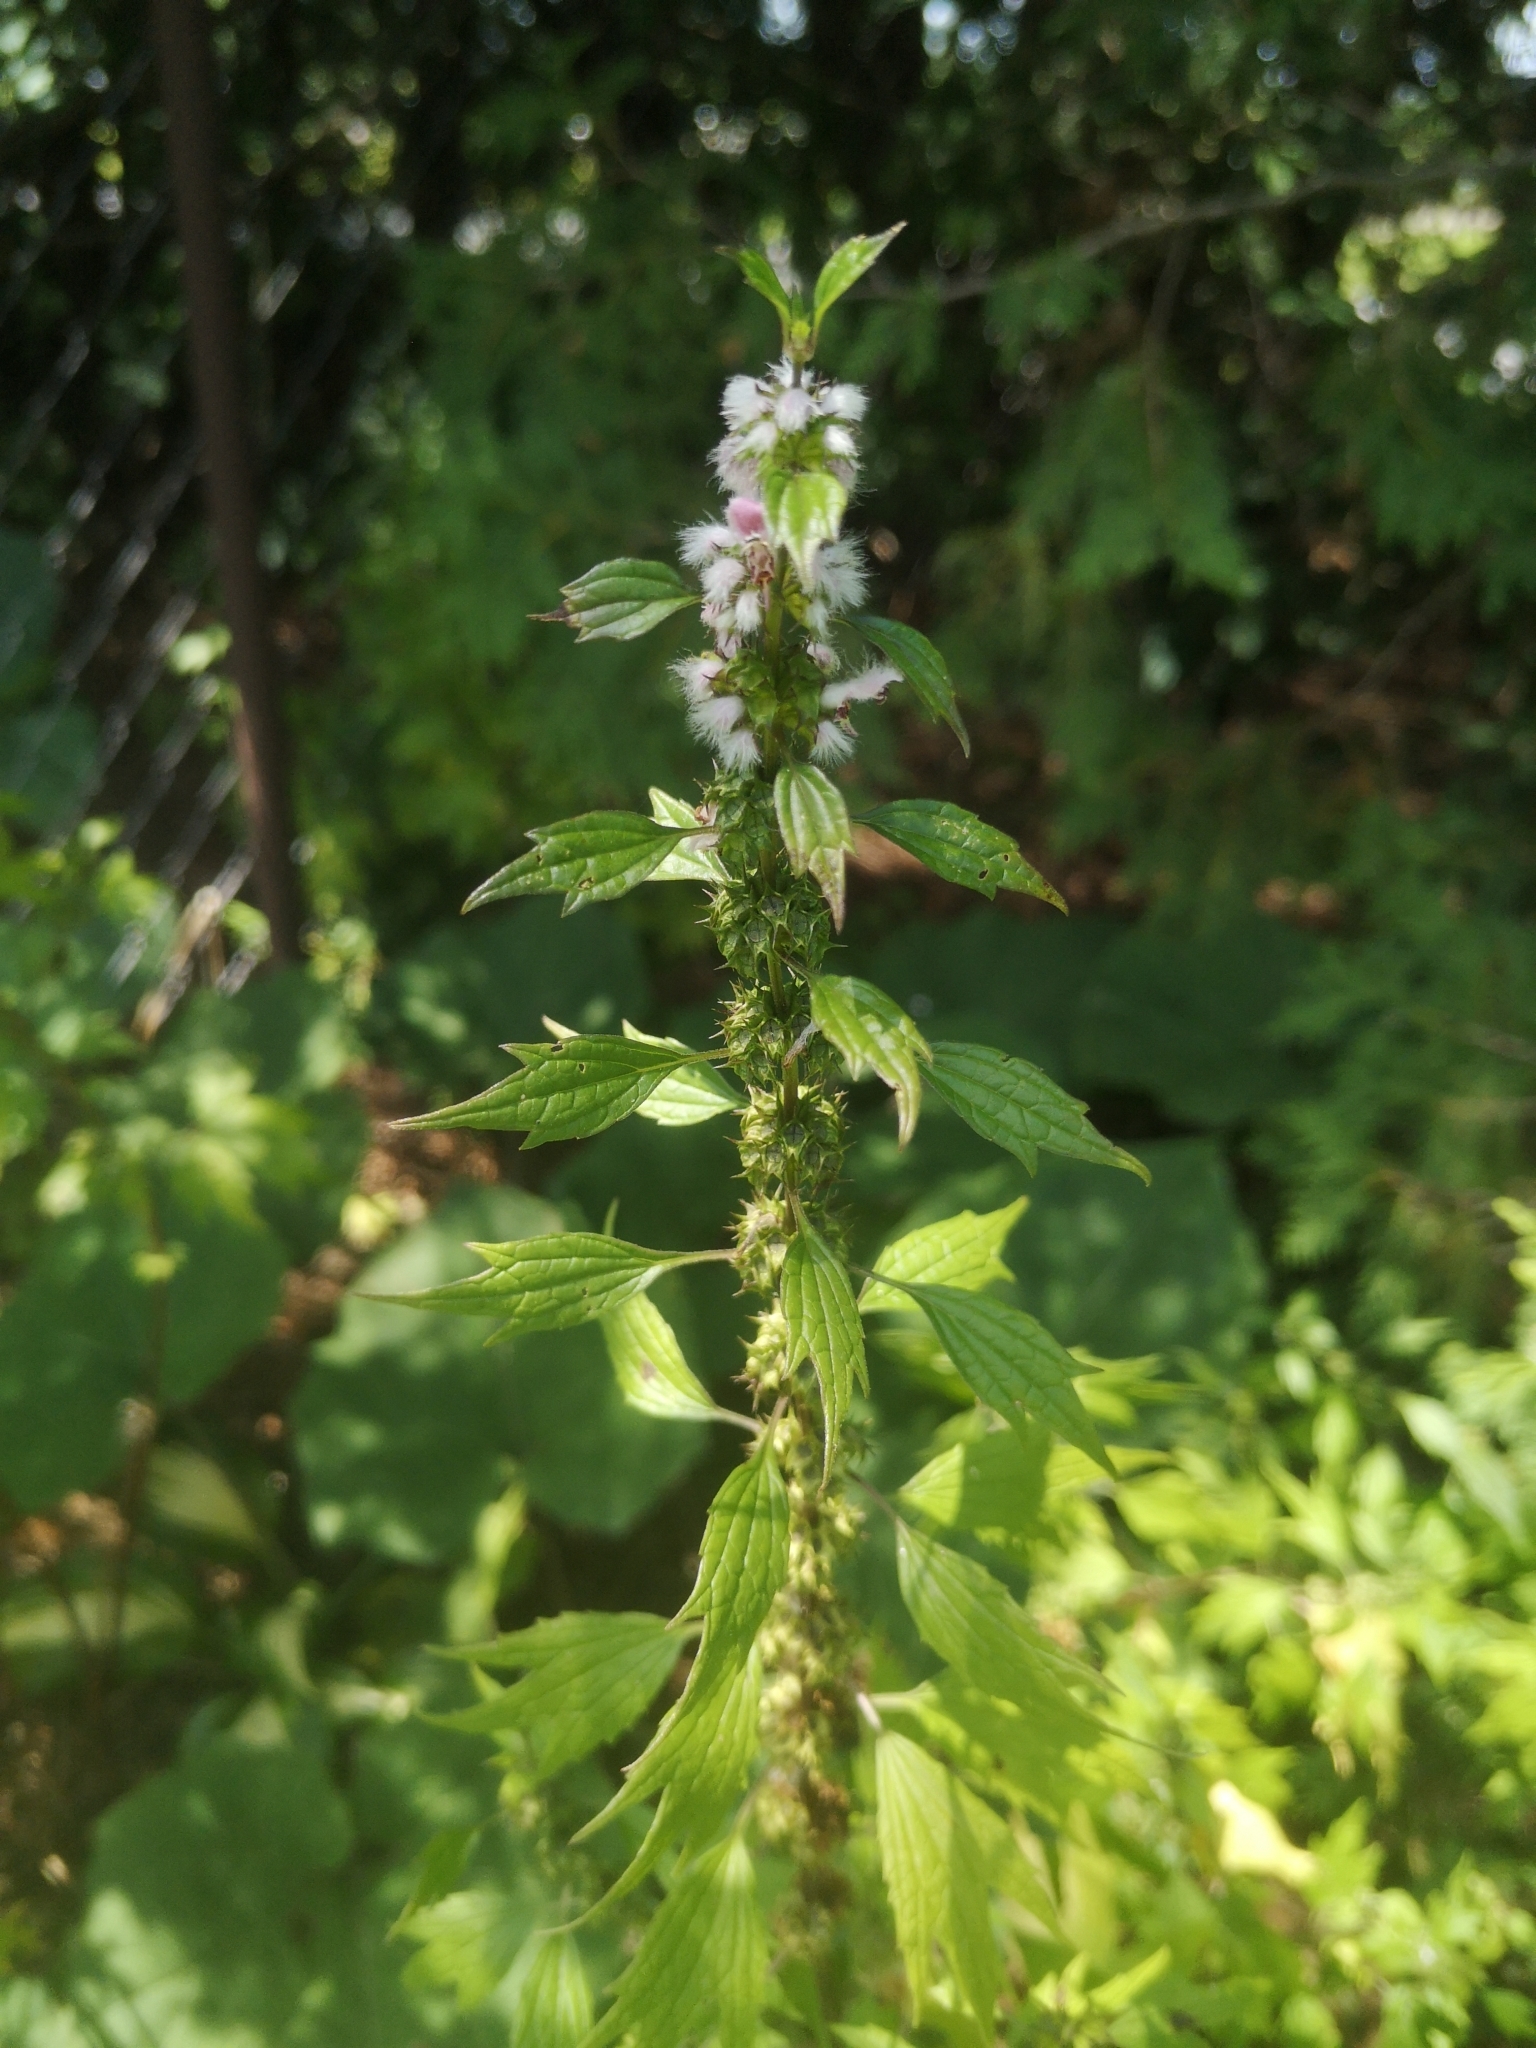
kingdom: Plantae
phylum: Tracheophyta
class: Magnoliopsida
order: Lamiales
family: Lamiaceae
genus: Leonurus
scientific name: Leonurus cardiaca
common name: Motherwort
